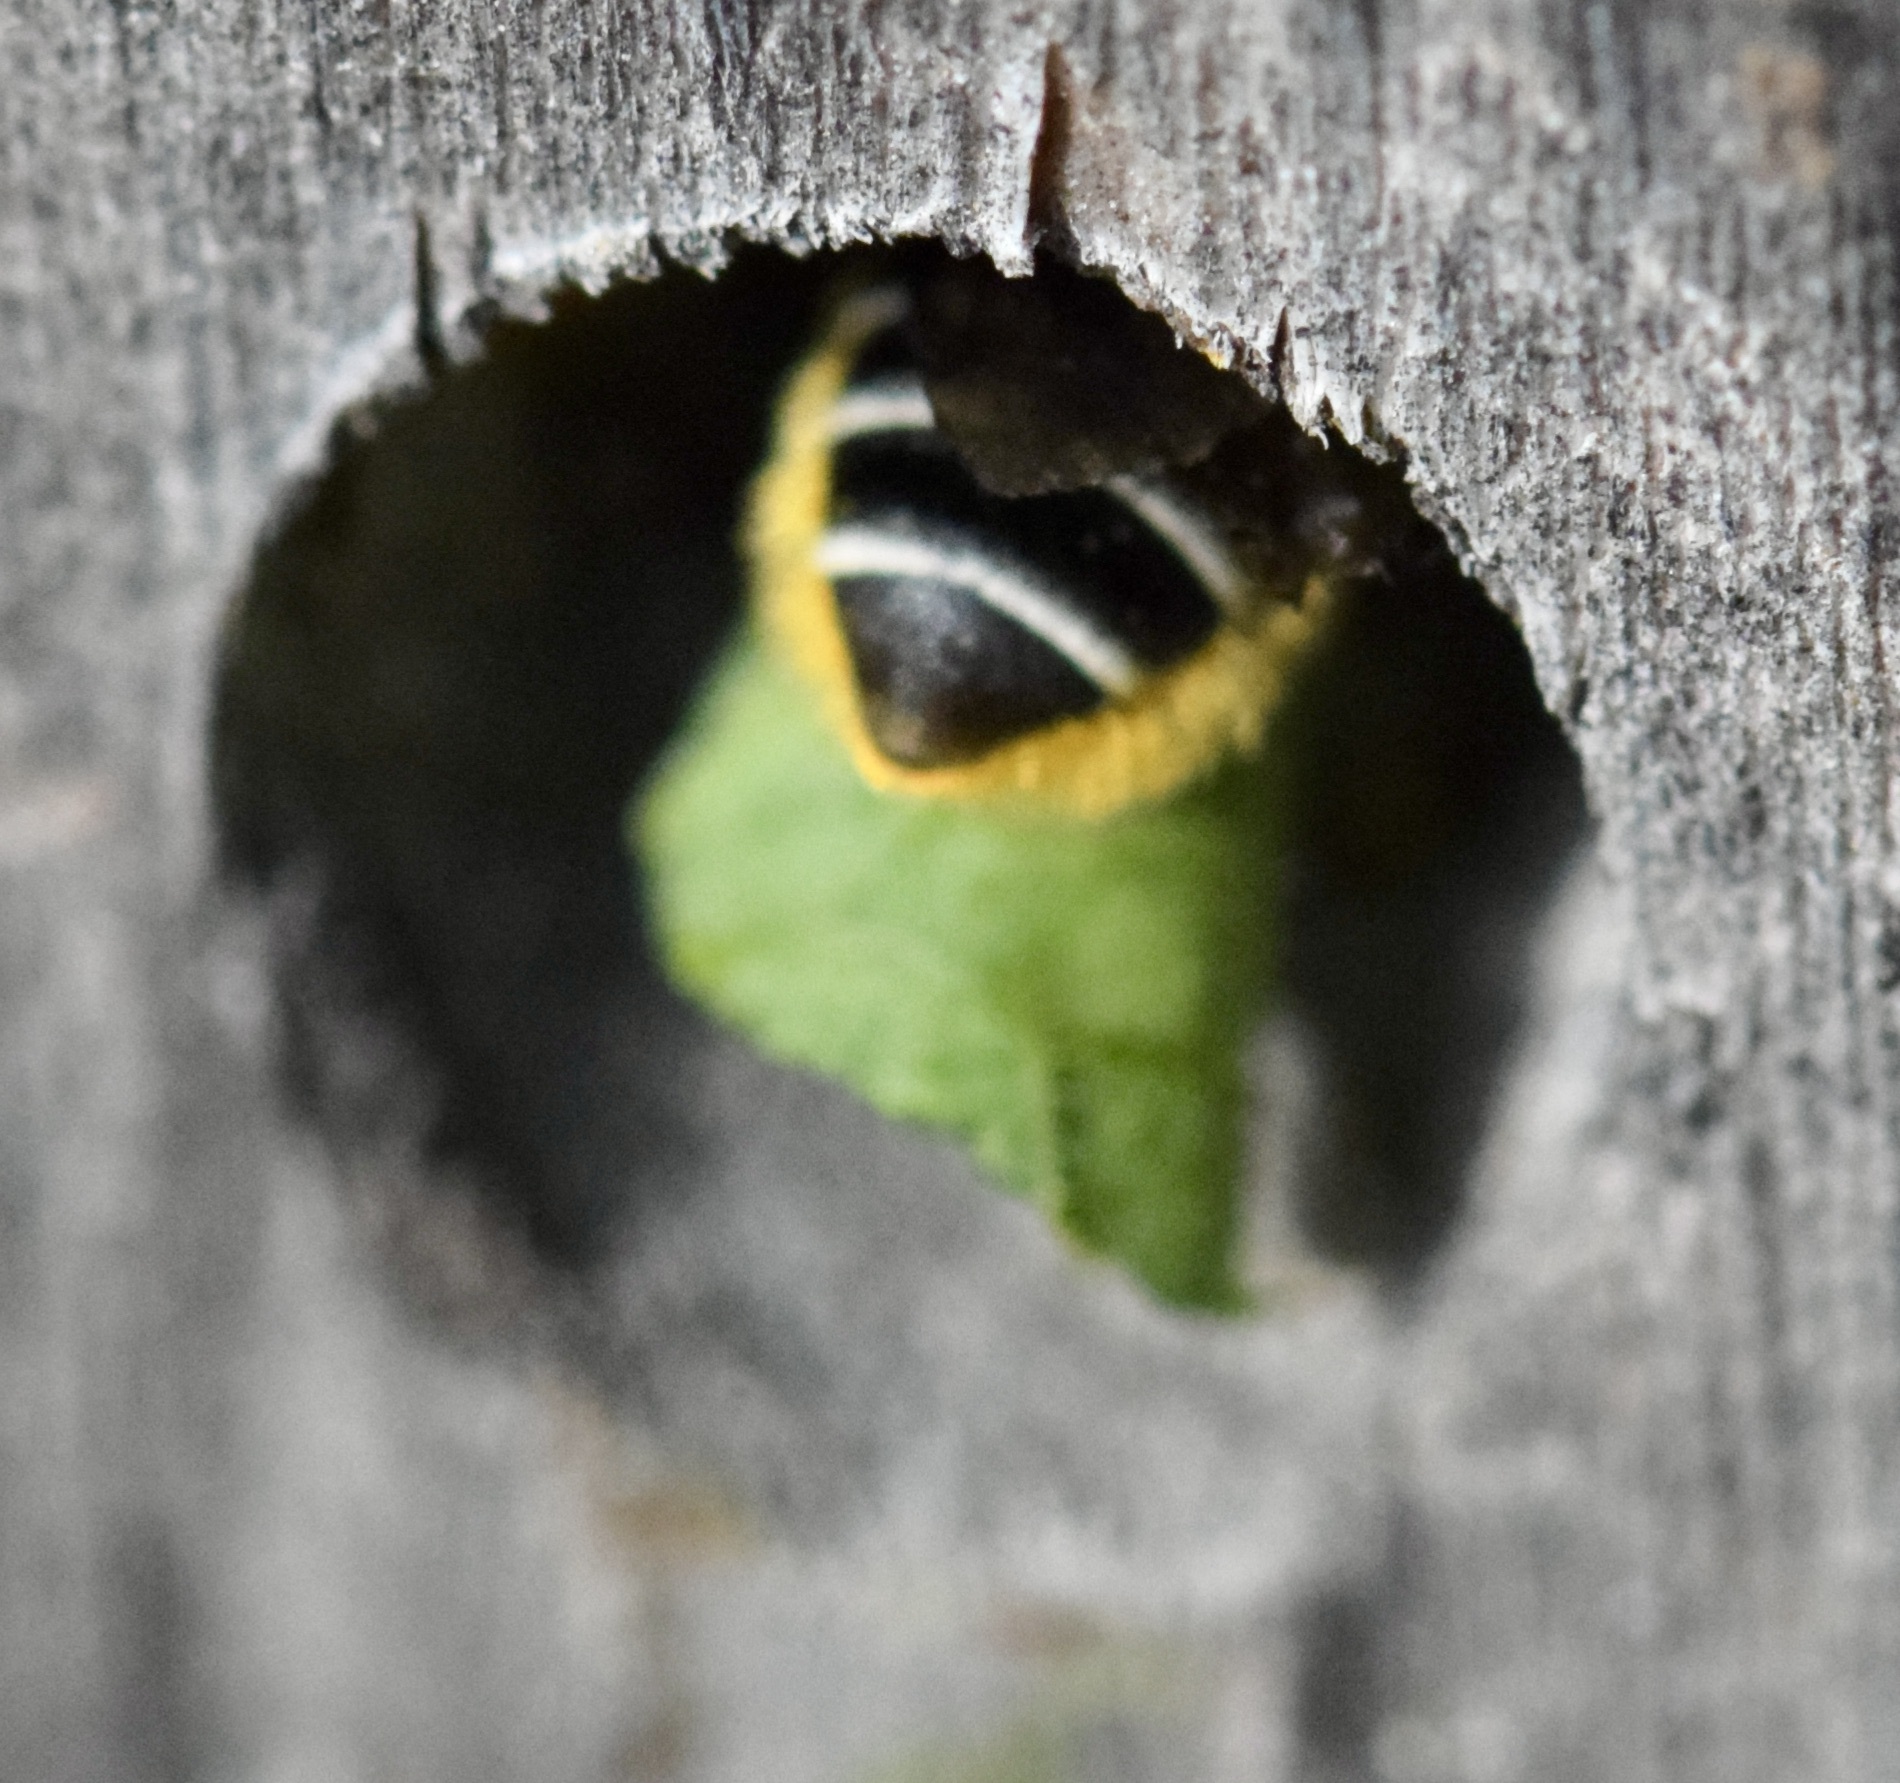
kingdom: Animalia
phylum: Arthropoda
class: Insecta
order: Hymenoptera
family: Megachilidae
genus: Megachile
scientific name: Megachile relativa
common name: Golden-tailed leafcutter
